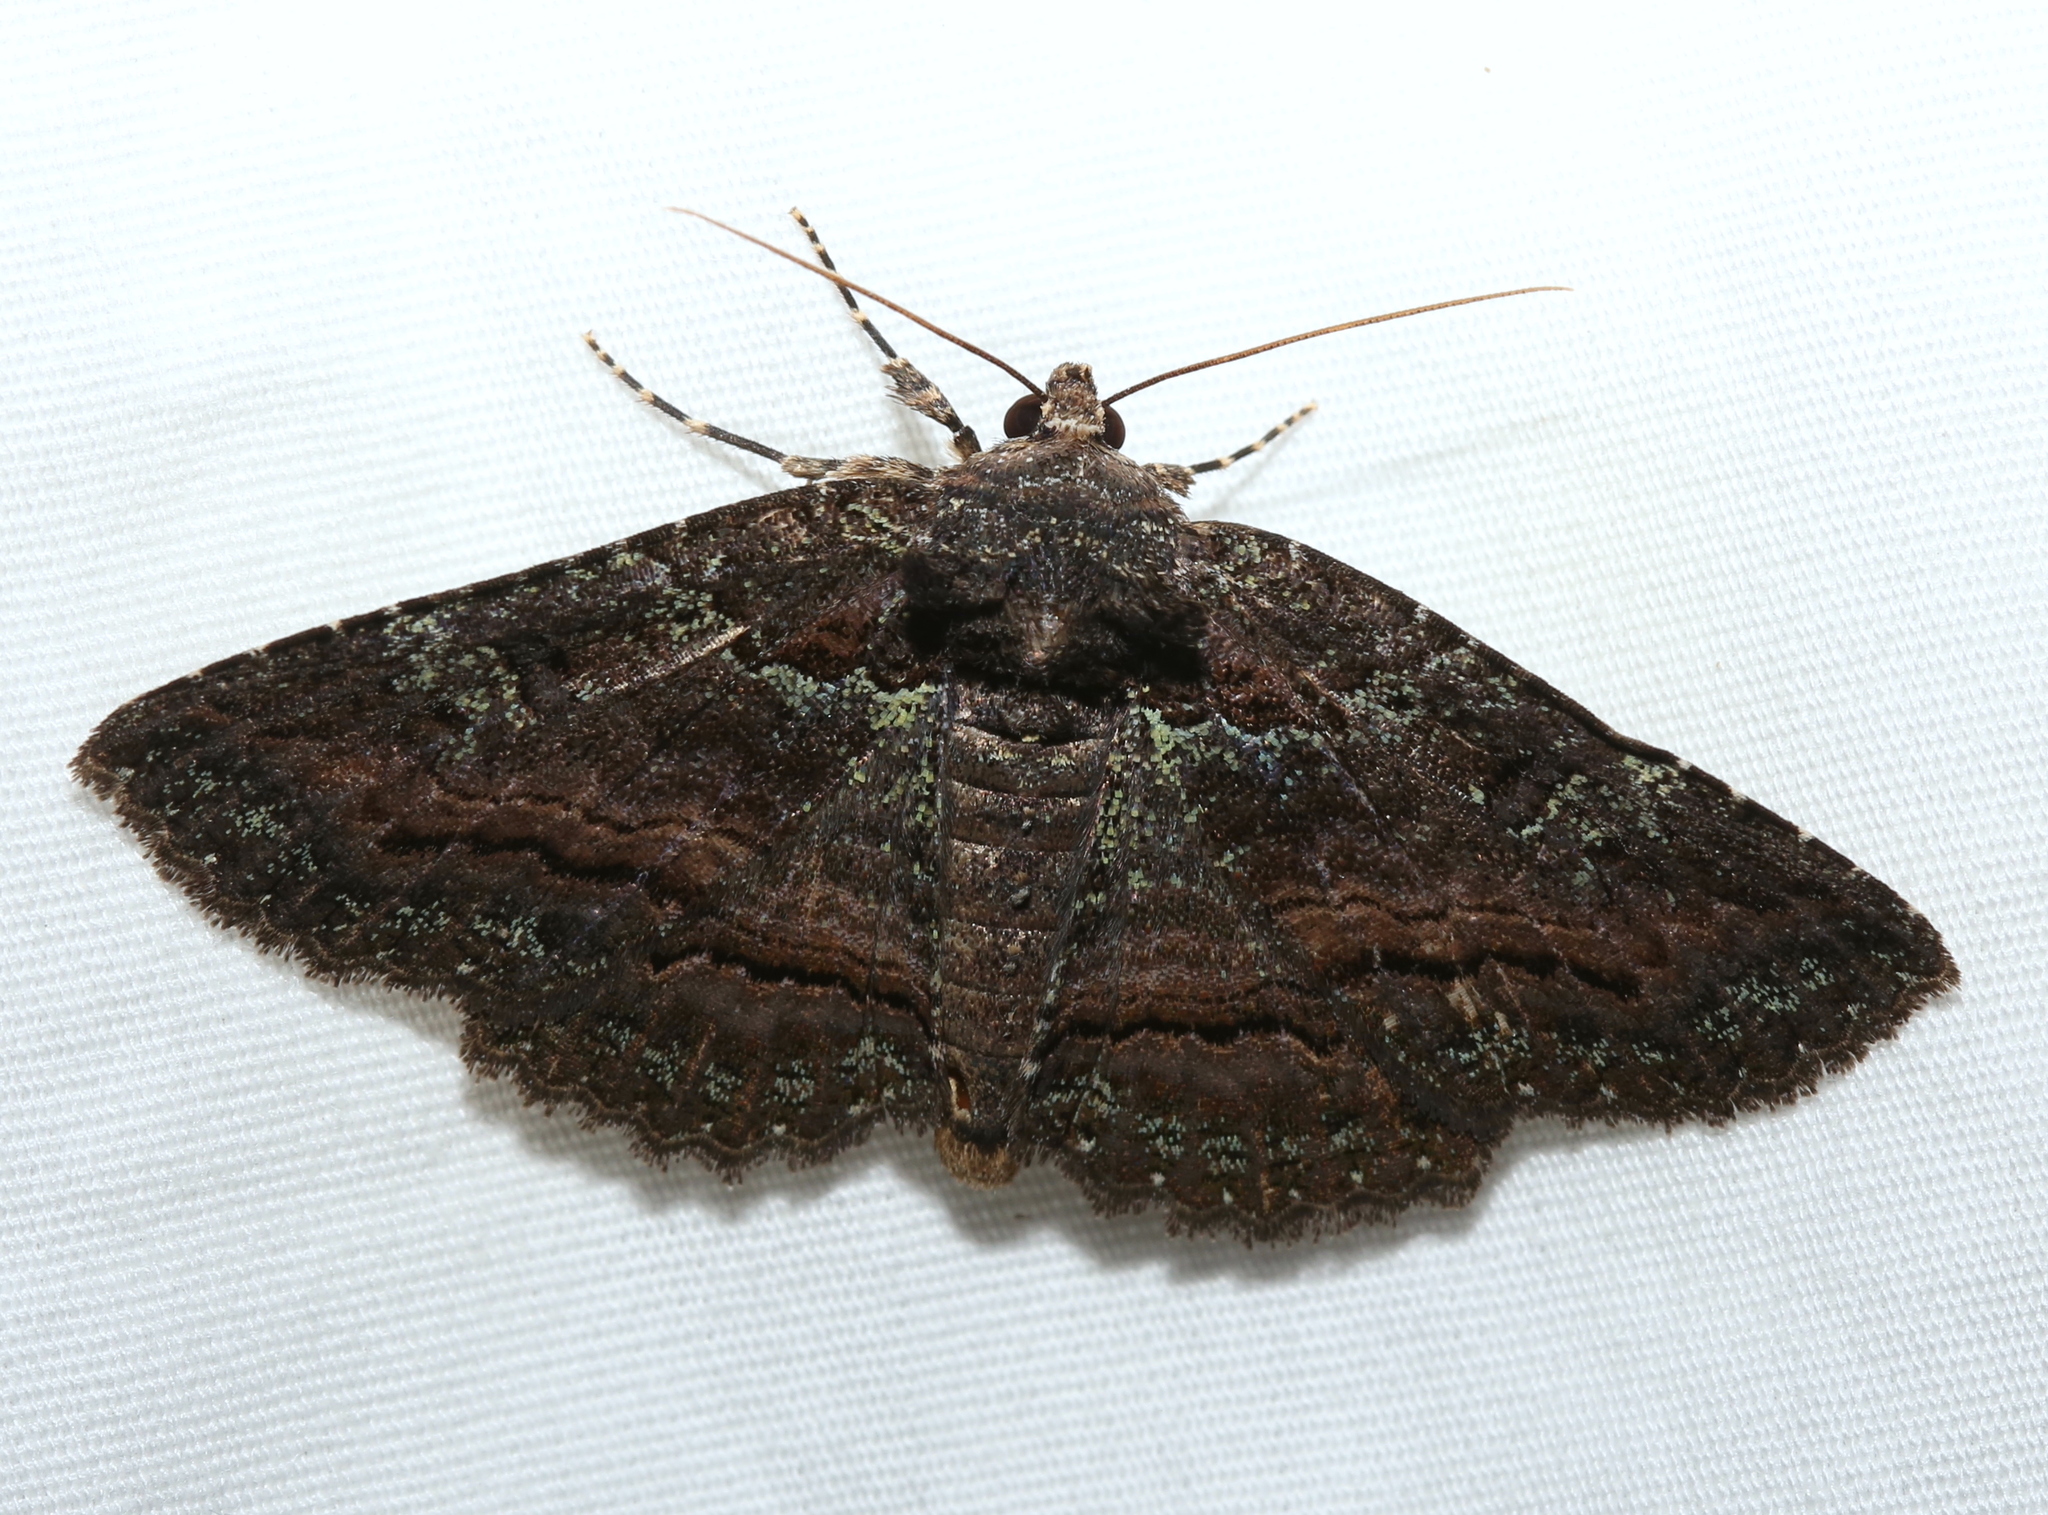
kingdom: Animalia
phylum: Arthropoda
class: Insecta
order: Lepidoptera
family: Erebidae
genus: Zale
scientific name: Zale aeruginosa
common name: Green-dusted zale moth
